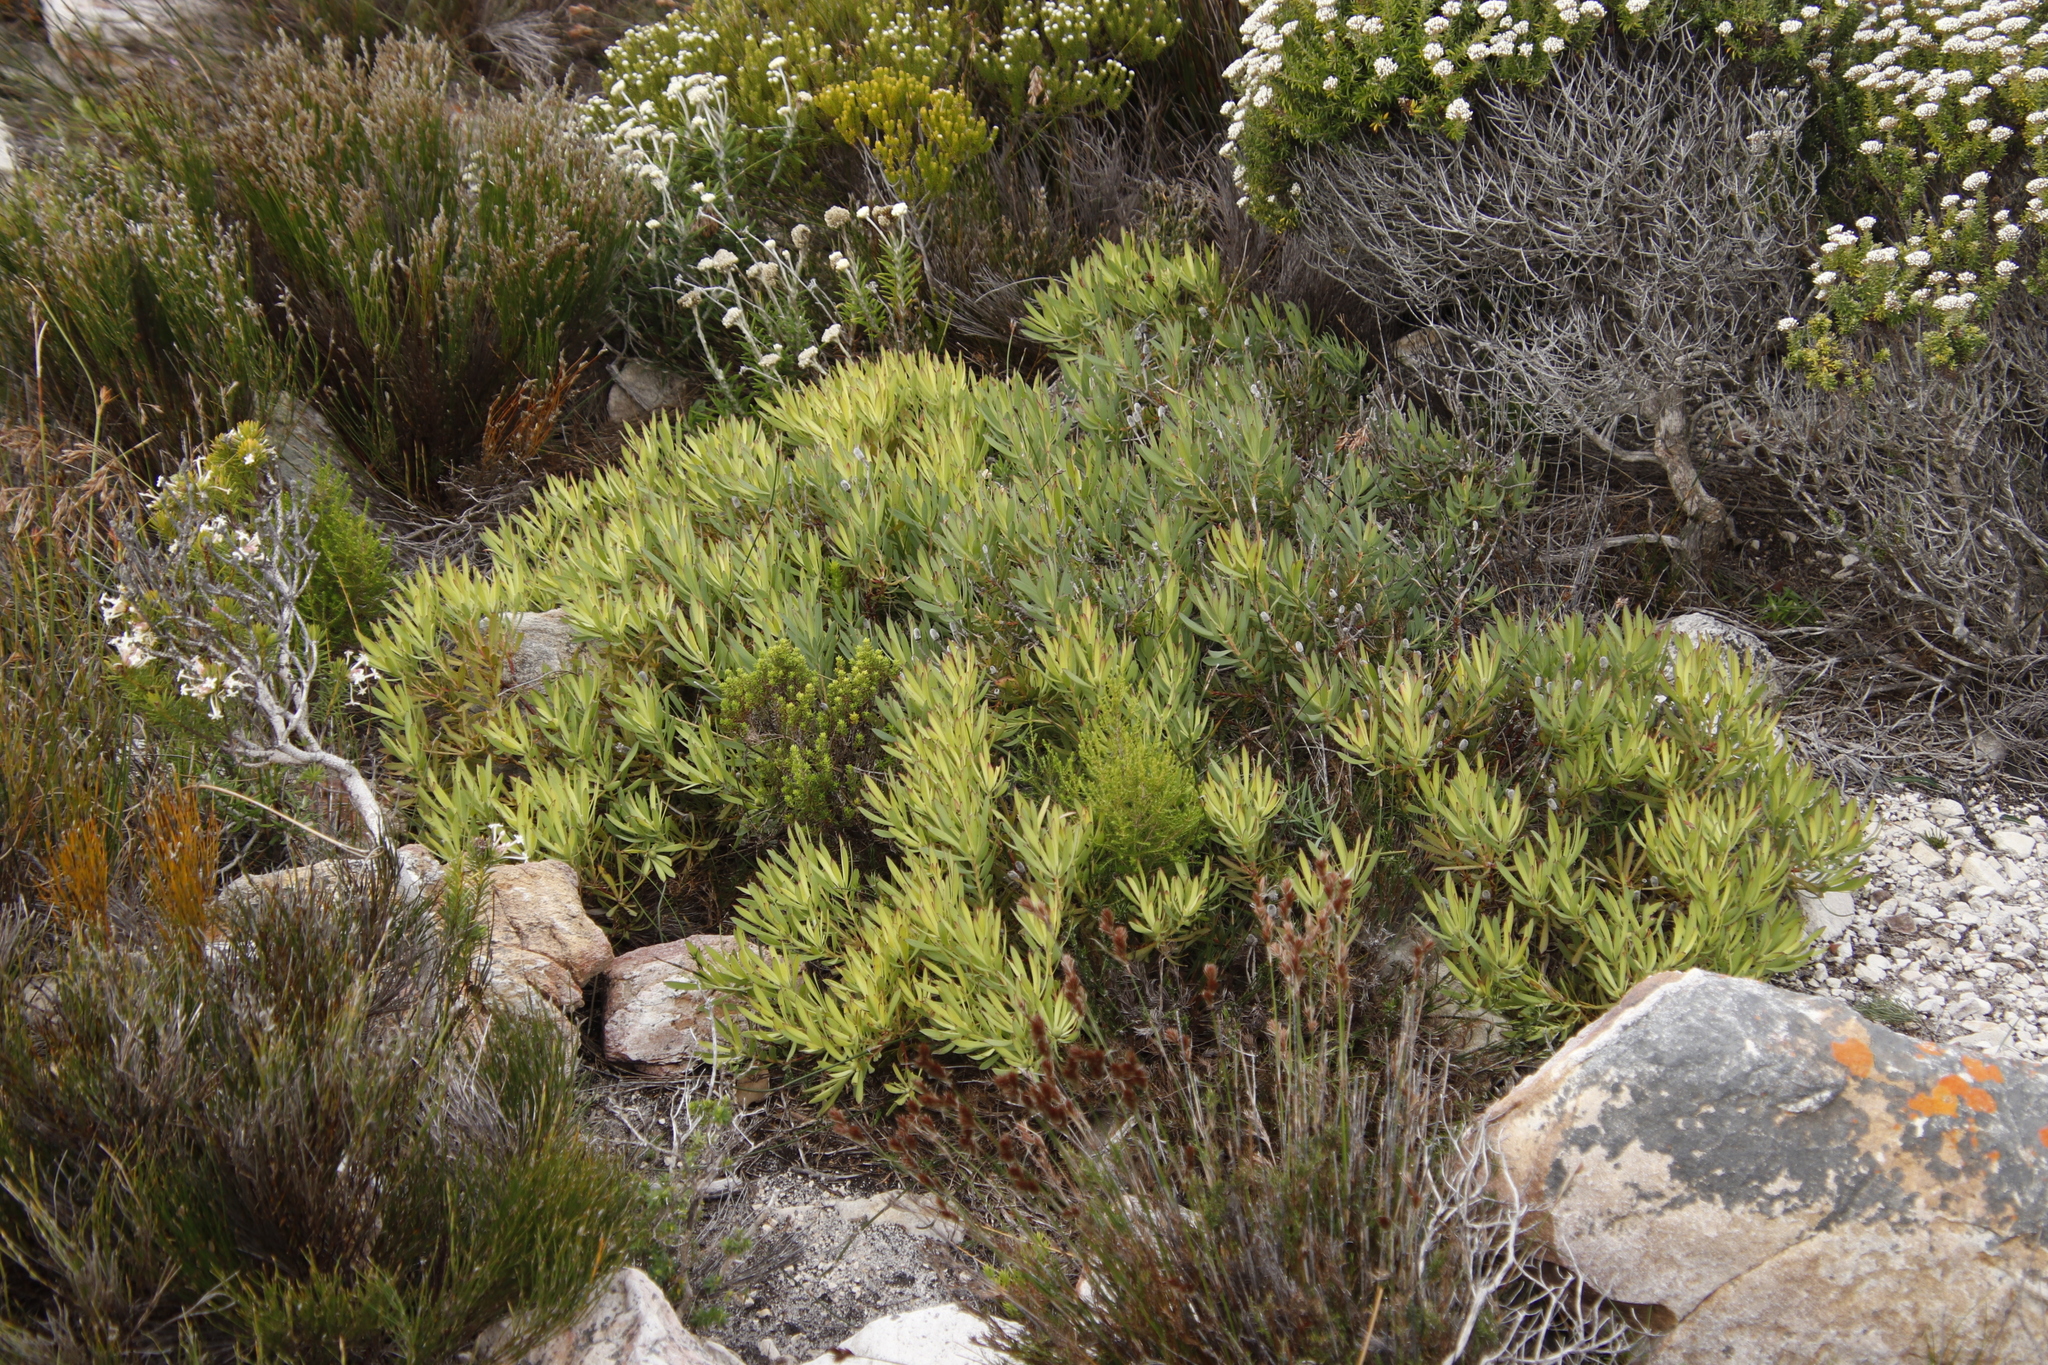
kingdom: Plantae
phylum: Tracheophyta
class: Magnoliopsida
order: Proteales
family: Proteaceae
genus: Leucadendron
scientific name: Leucadendron salignum
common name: Common sunshine conebush
